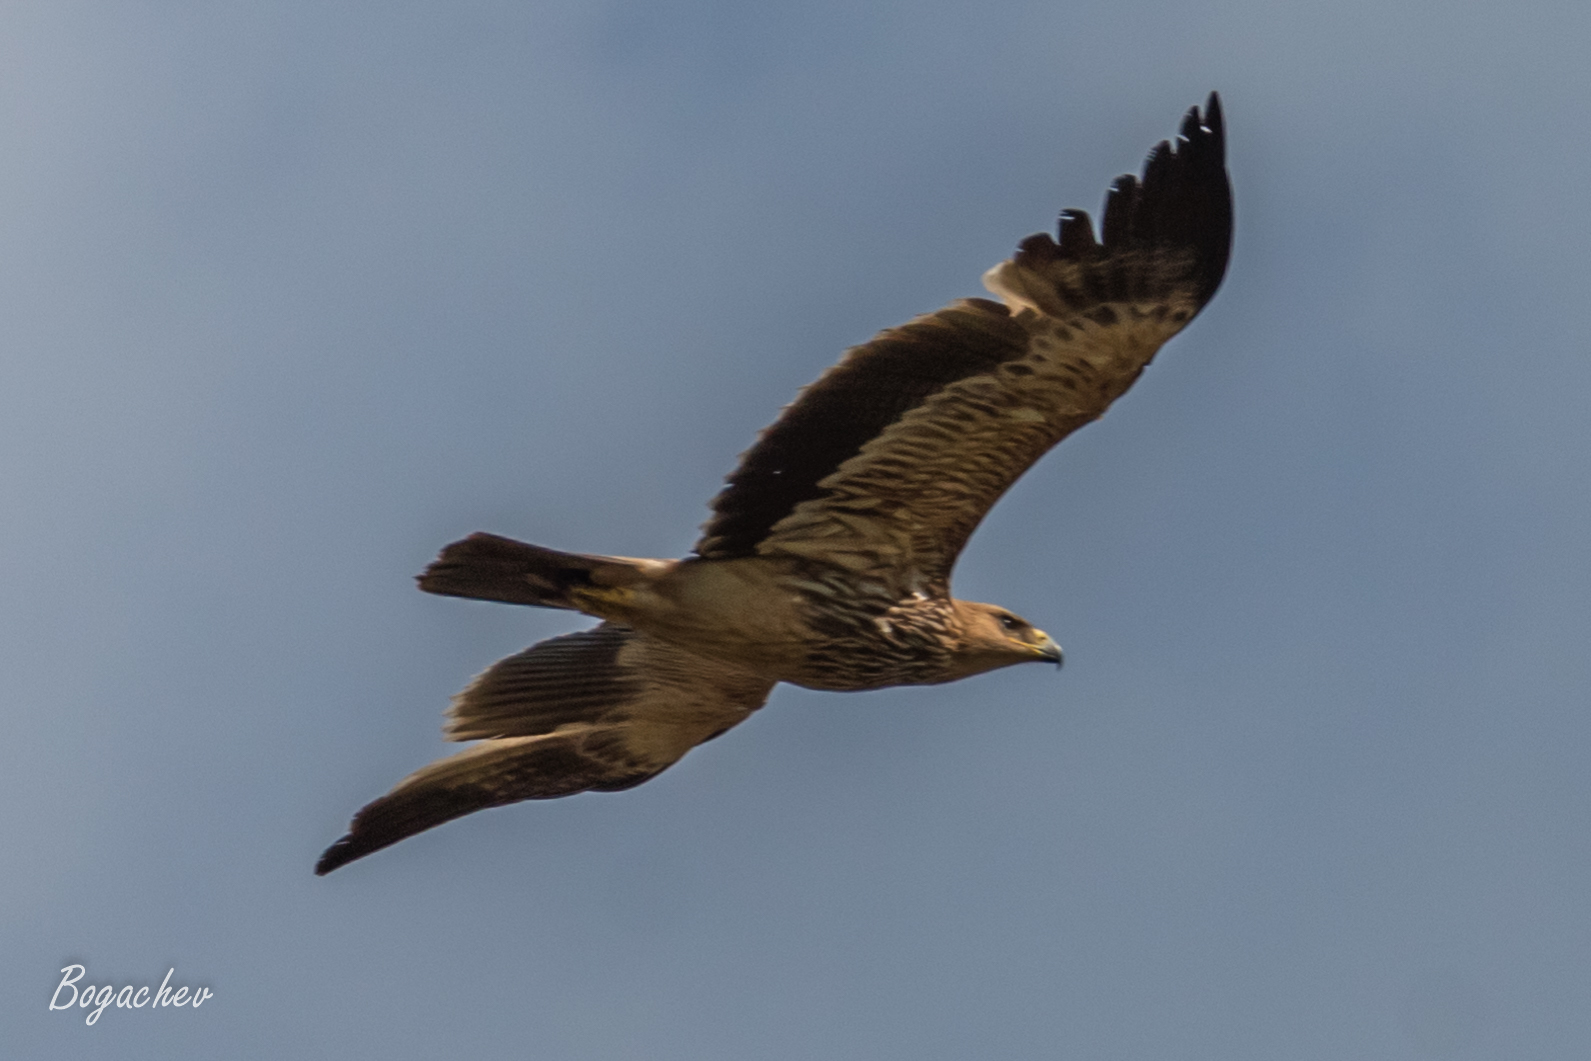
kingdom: Animalia
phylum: Chordata
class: Aves
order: Accipitriformes
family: Accipitridae
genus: Aquila
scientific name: Aquila heliaca
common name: Eastern imperial eagle
